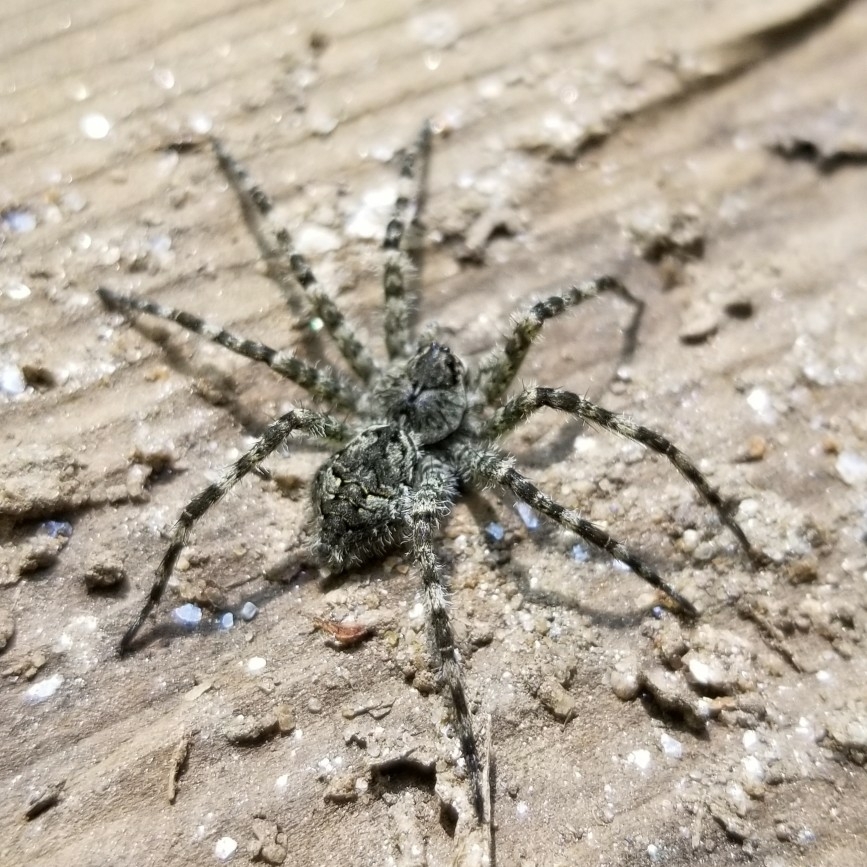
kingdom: Animalia
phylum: Arthropoda
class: Arachnida
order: Araneae
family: Pisauridae
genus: Dolomedes
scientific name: Dolomedes albineus
